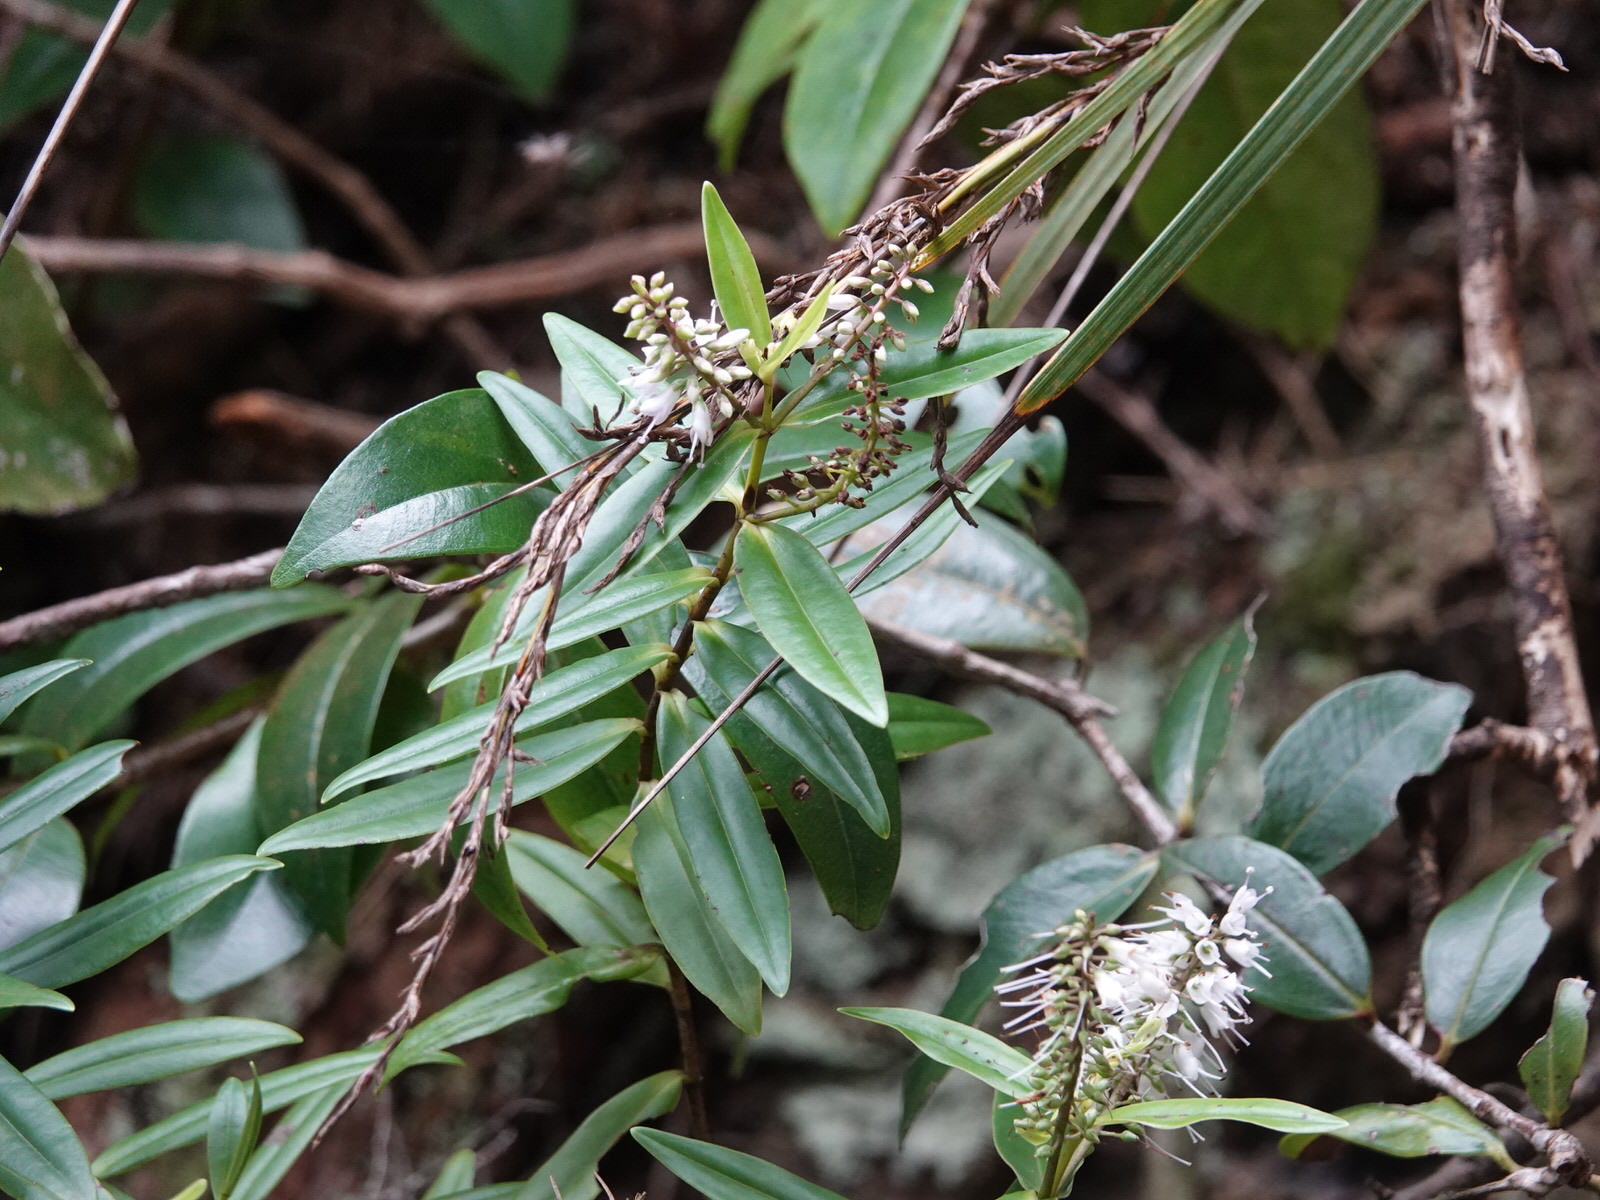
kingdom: Plantae
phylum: Tracheophyta
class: Magnoliopsida
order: Lamiales
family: Plantaginaceae
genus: Veronica
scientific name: Veronica macrocarpa
